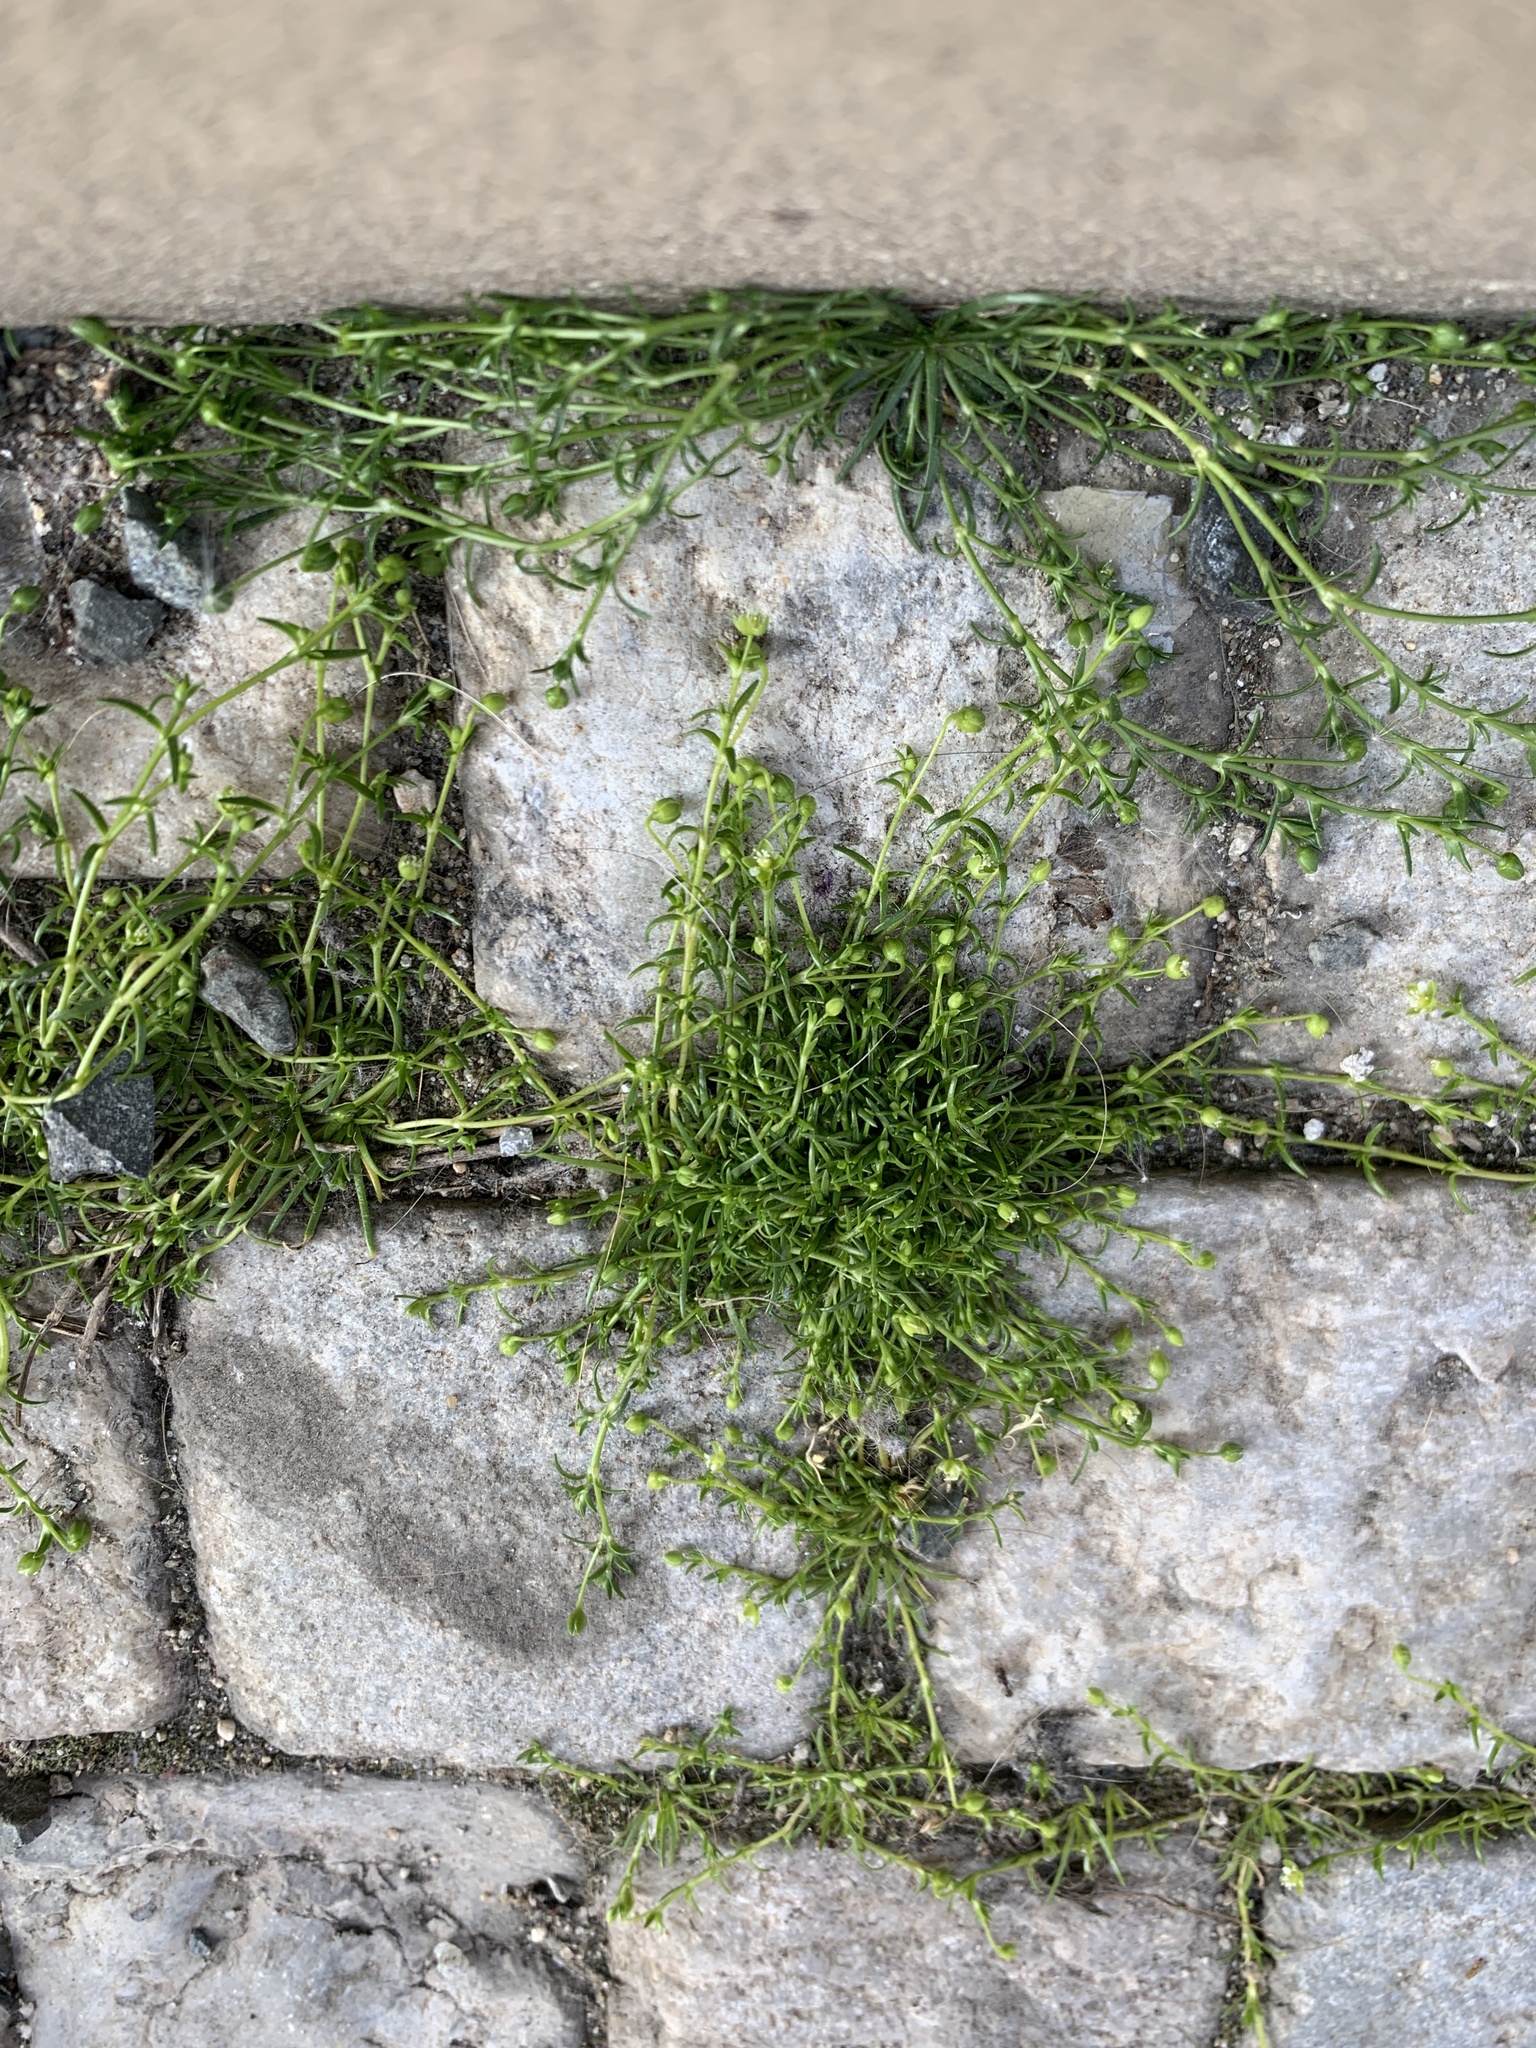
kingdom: Plantae
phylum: Tracheophyta
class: Magnoliopsida
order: Caryophyllales
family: Caryophyllaceae
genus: Sagina
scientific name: Sagina procumbens
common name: Procumbent pearlwort
